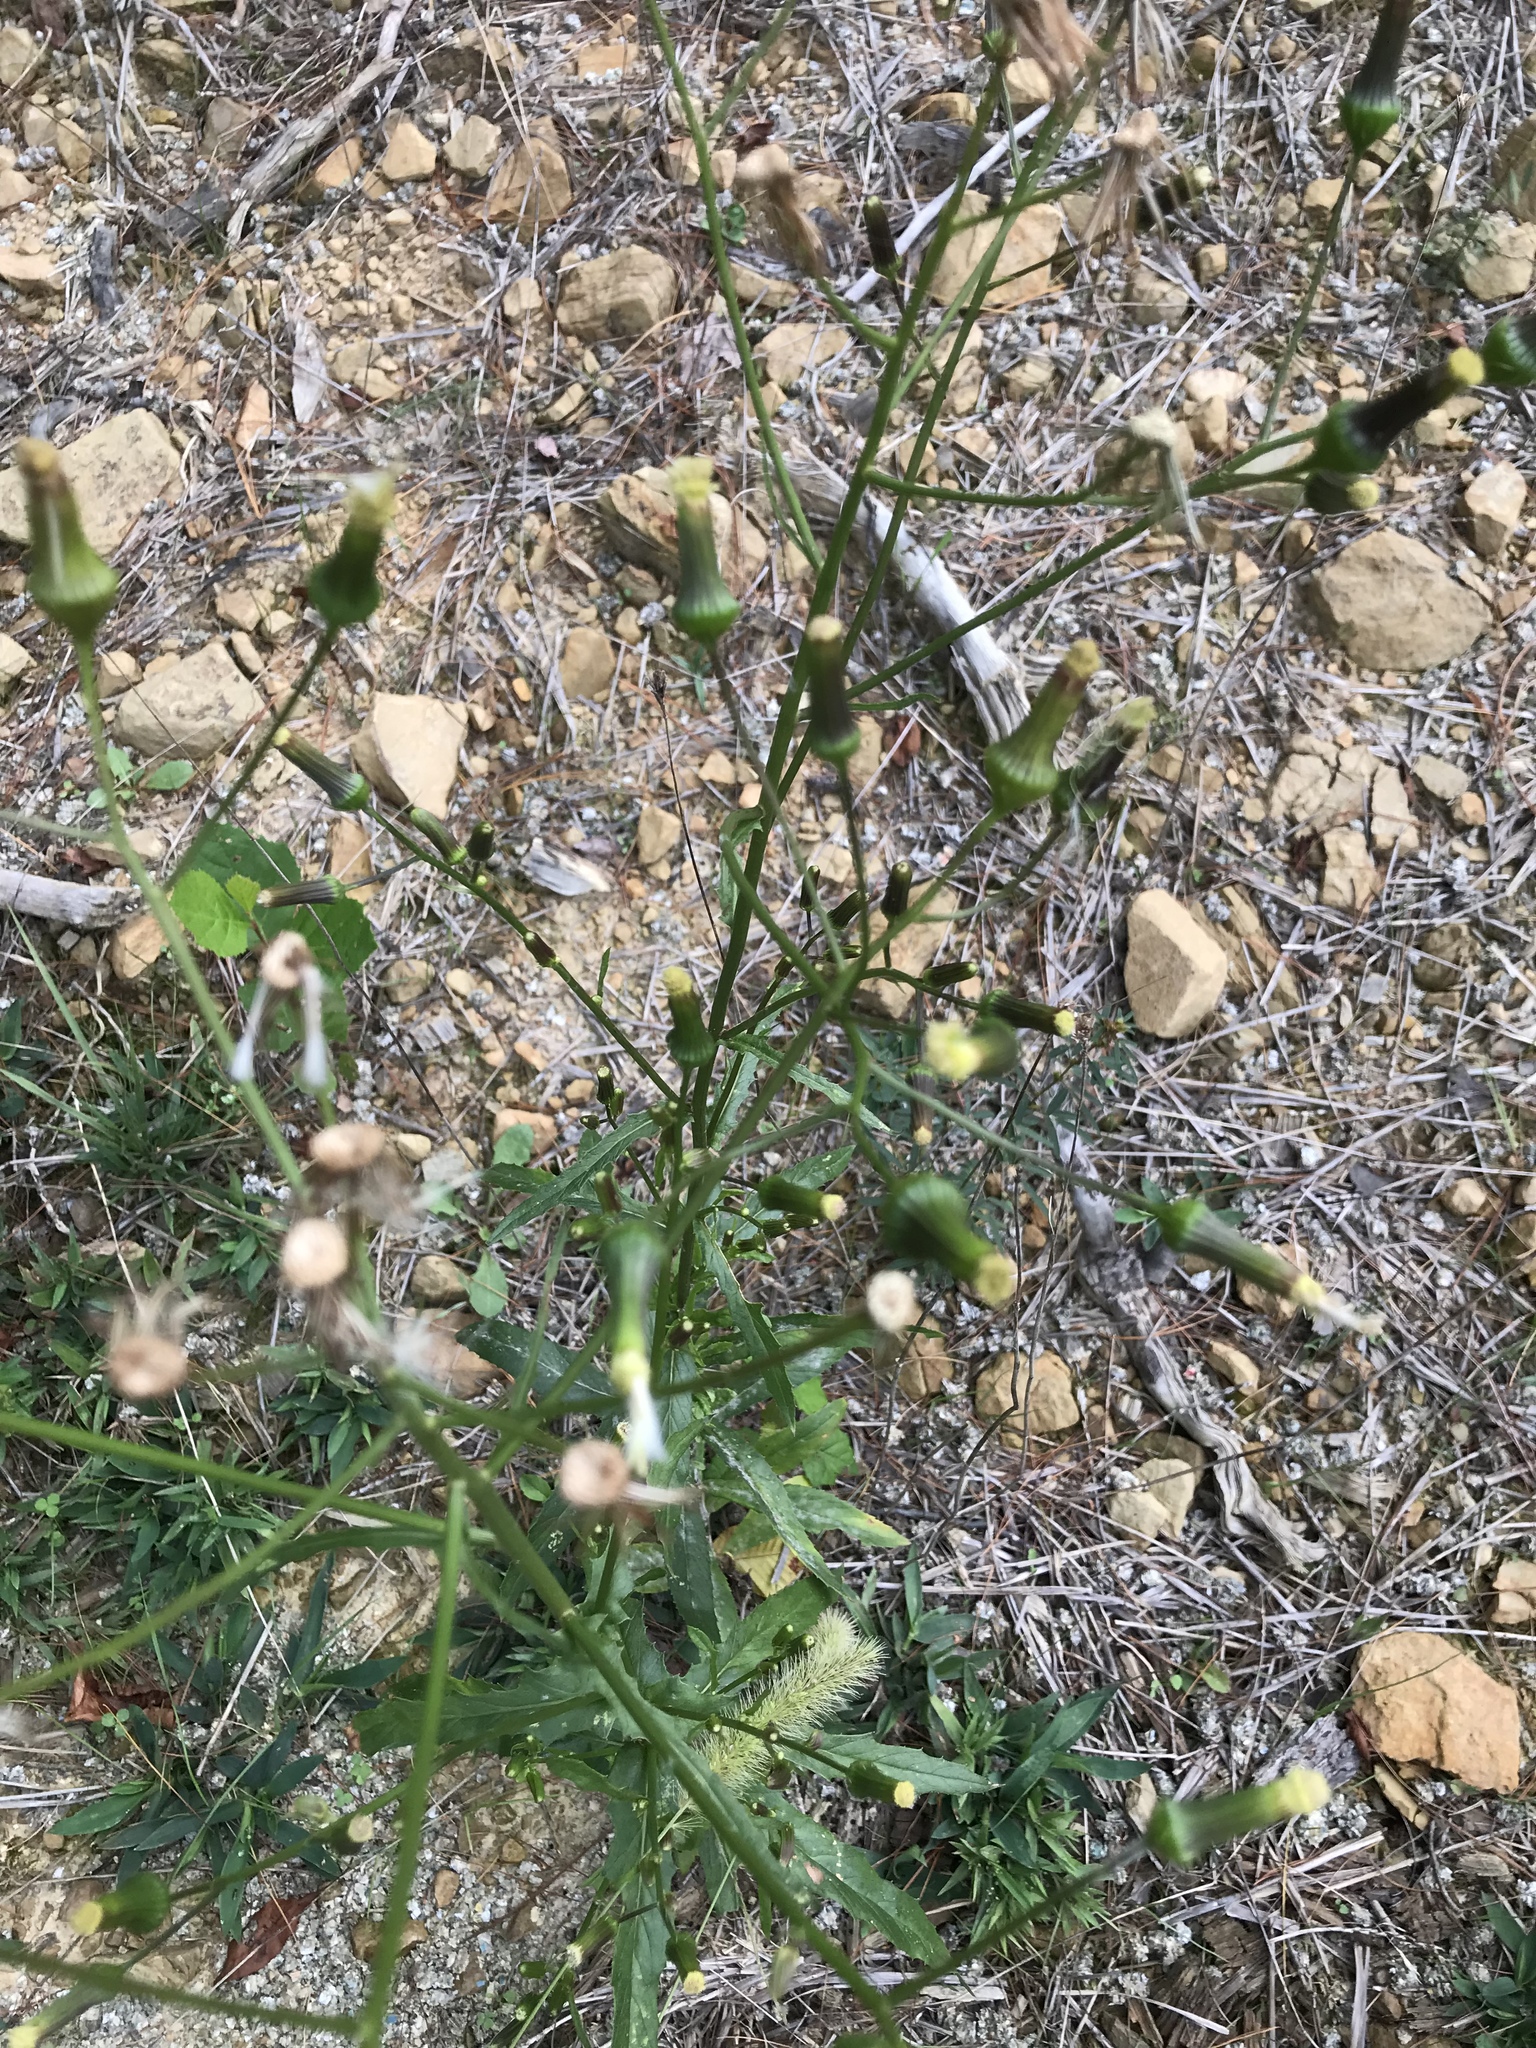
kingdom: Plantae
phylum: Tracheophyta
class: Magnoliopsida
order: Asterales
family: Asteraceae
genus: Erechtites
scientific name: Erechtites hieraciifolius
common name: American burnweed
